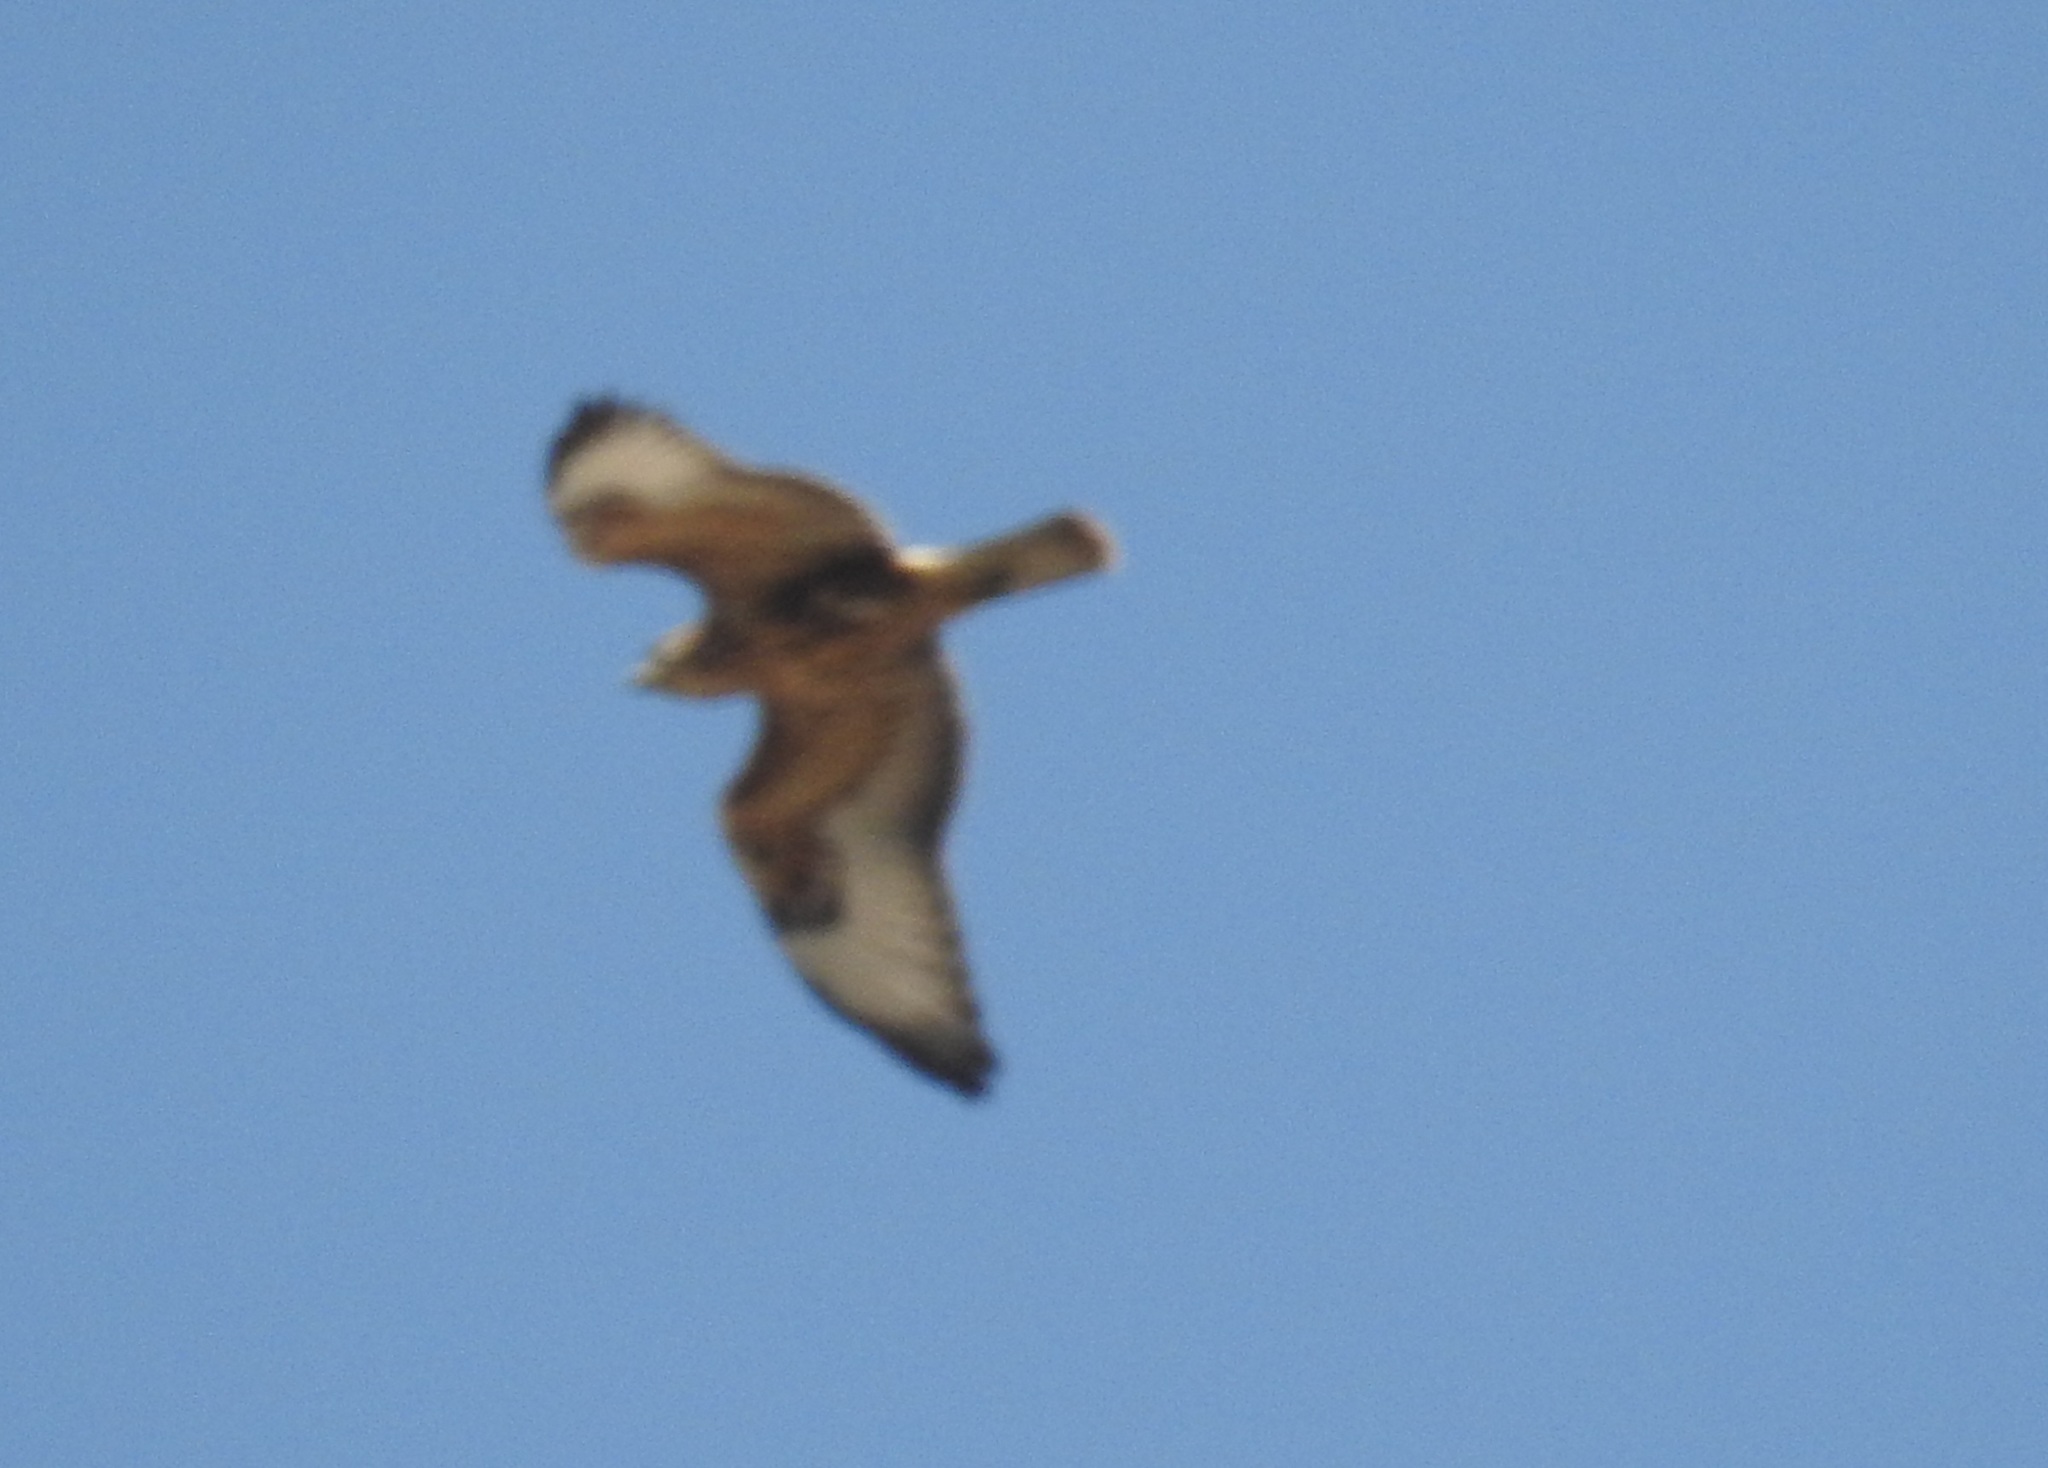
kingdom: Animalia
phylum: Chordata
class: Aves
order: Accipitriformes
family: Accipitridae
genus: Buteo
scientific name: Buteo rufinus
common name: Long-legged buzzard
